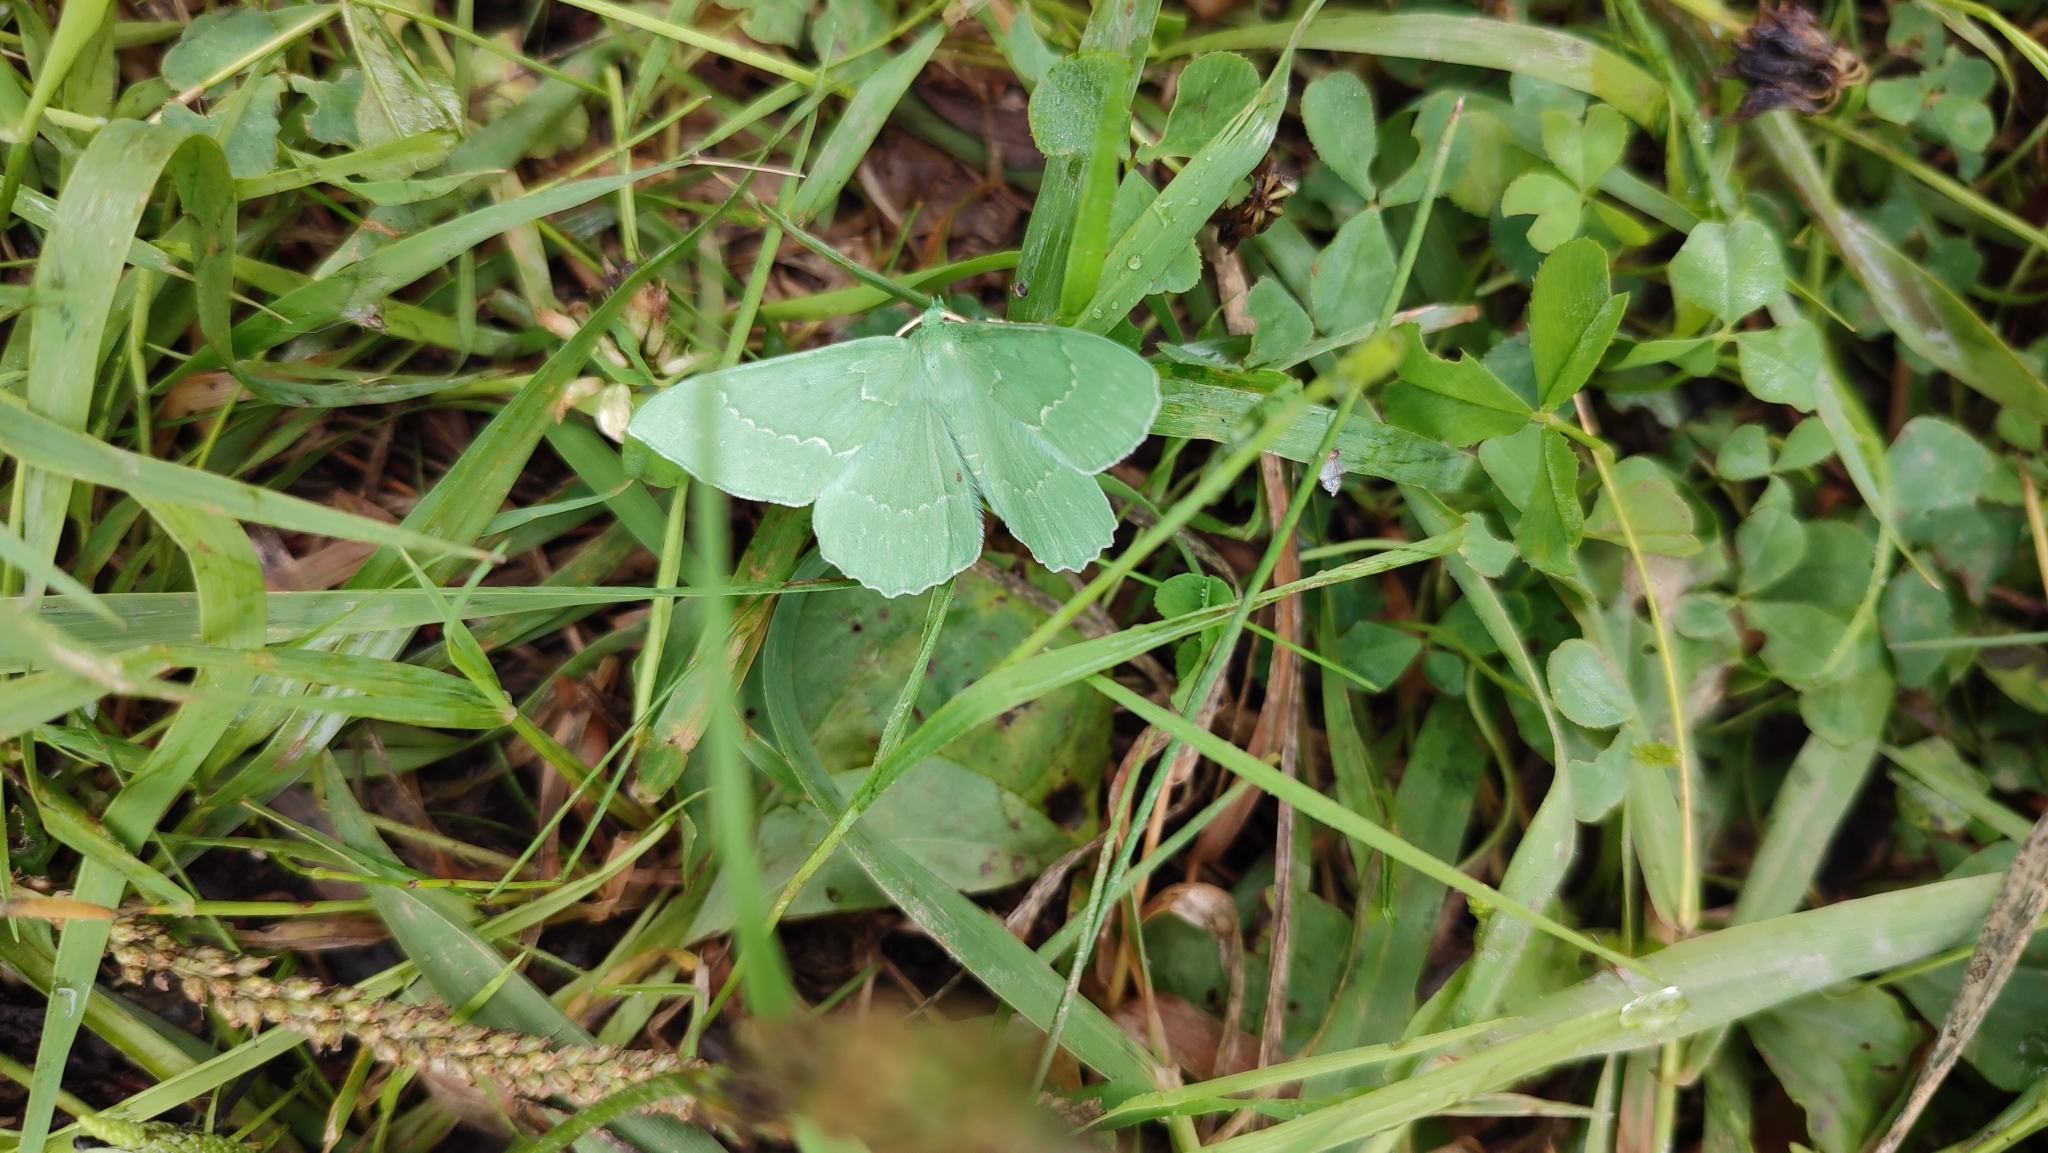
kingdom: Animalia
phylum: Arthropoda
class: Insecta
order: Lepidoptera
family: Geometridae
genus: Geometra
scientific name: Geometra papilionaria
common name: Large emerald
